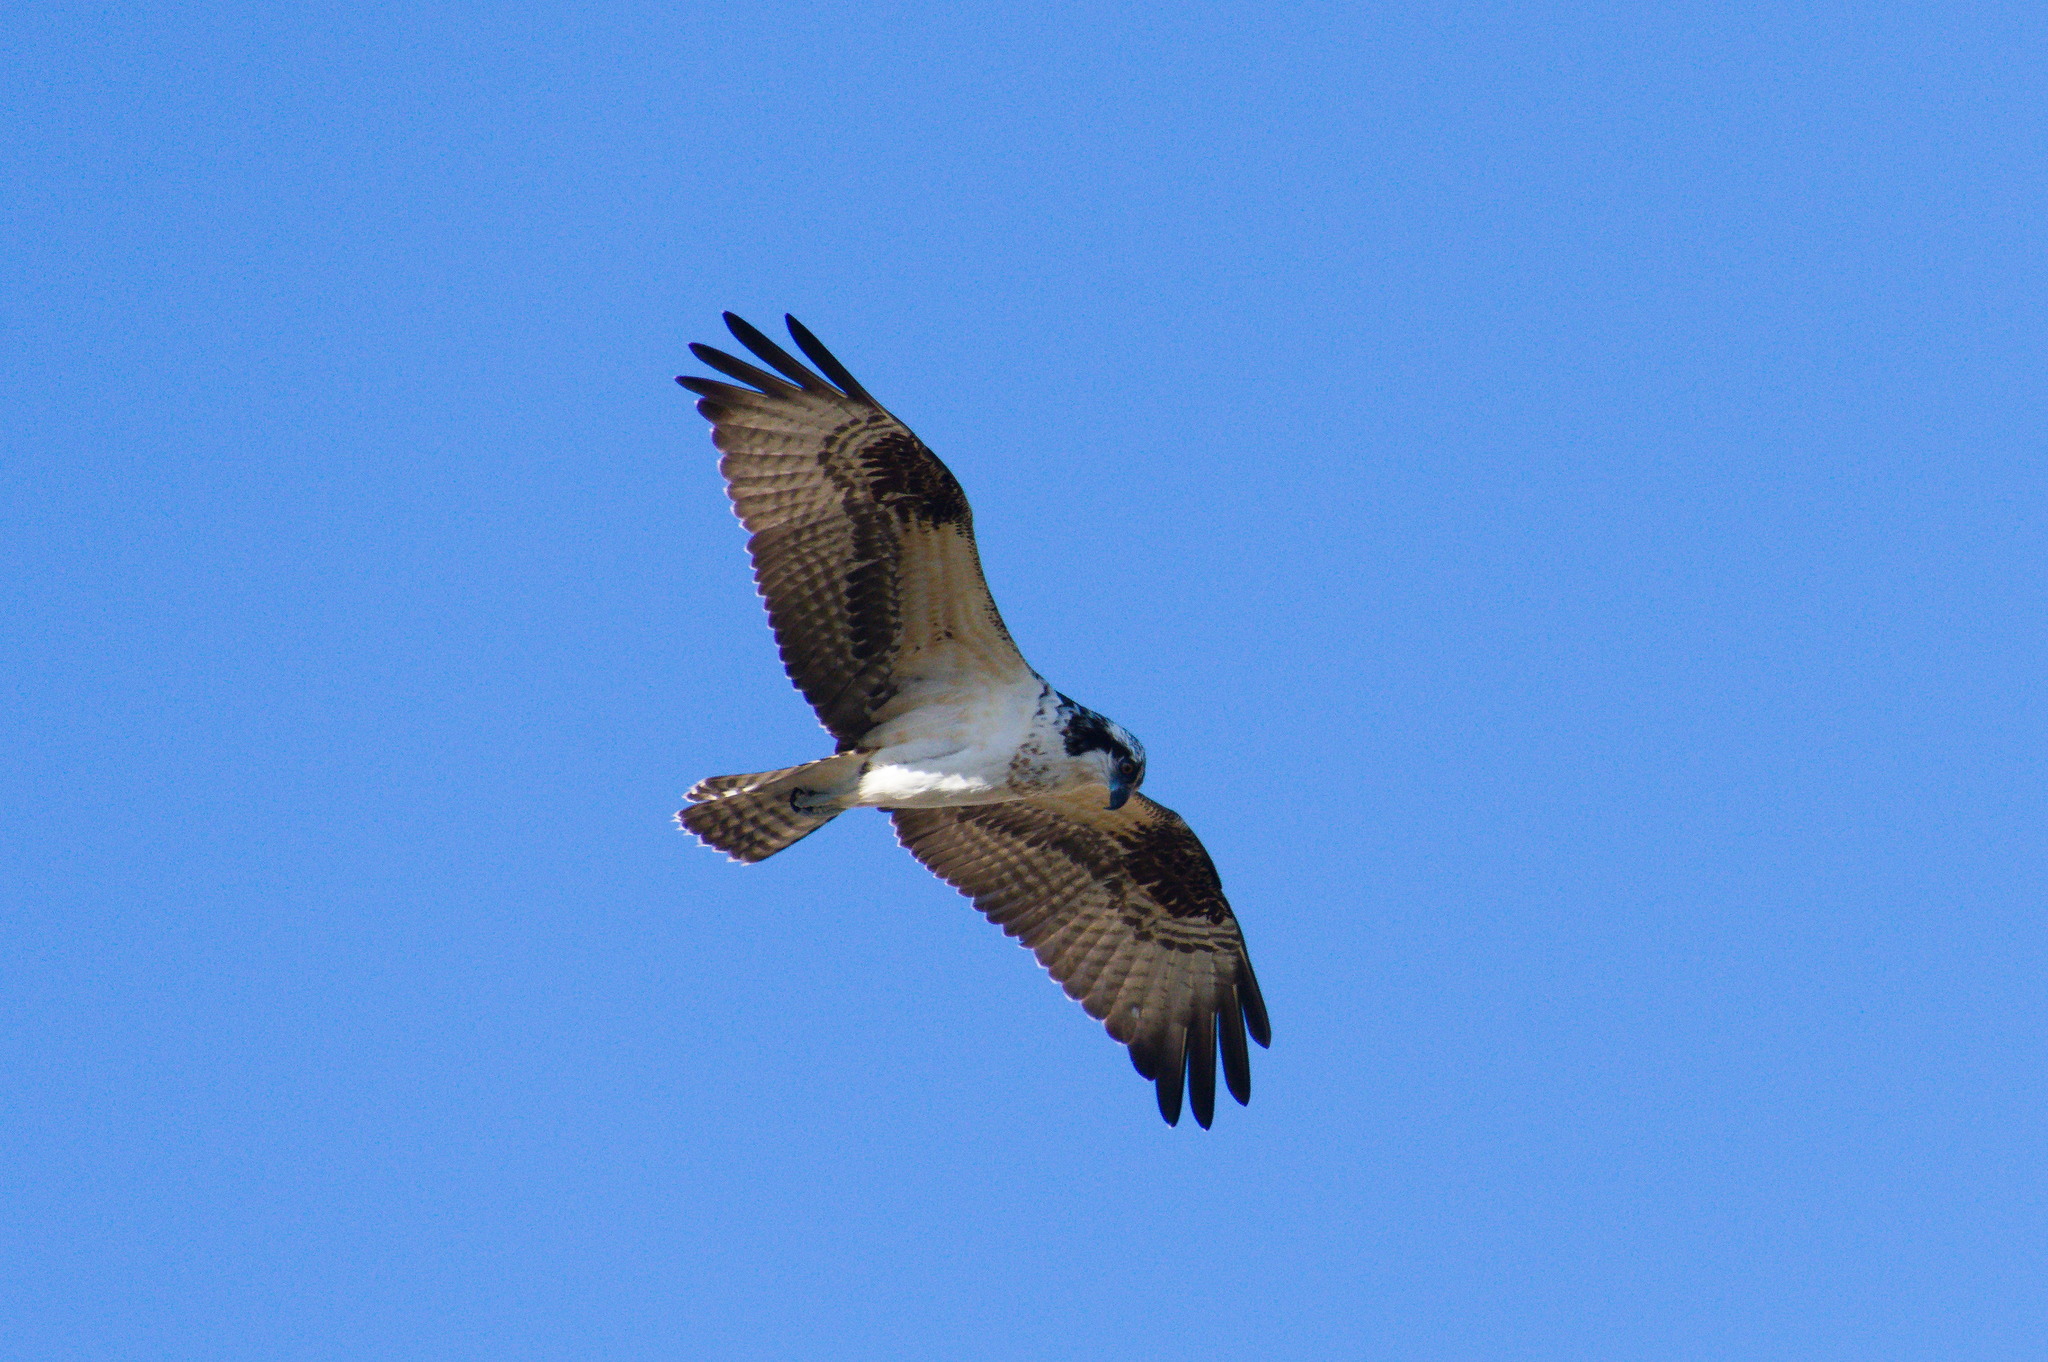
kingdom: Animalia
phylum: Chordata
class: Aves
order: Accipitriformes
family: Pandionidae
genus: Pandion
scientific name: Pandion haliaetus
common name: Osprey
